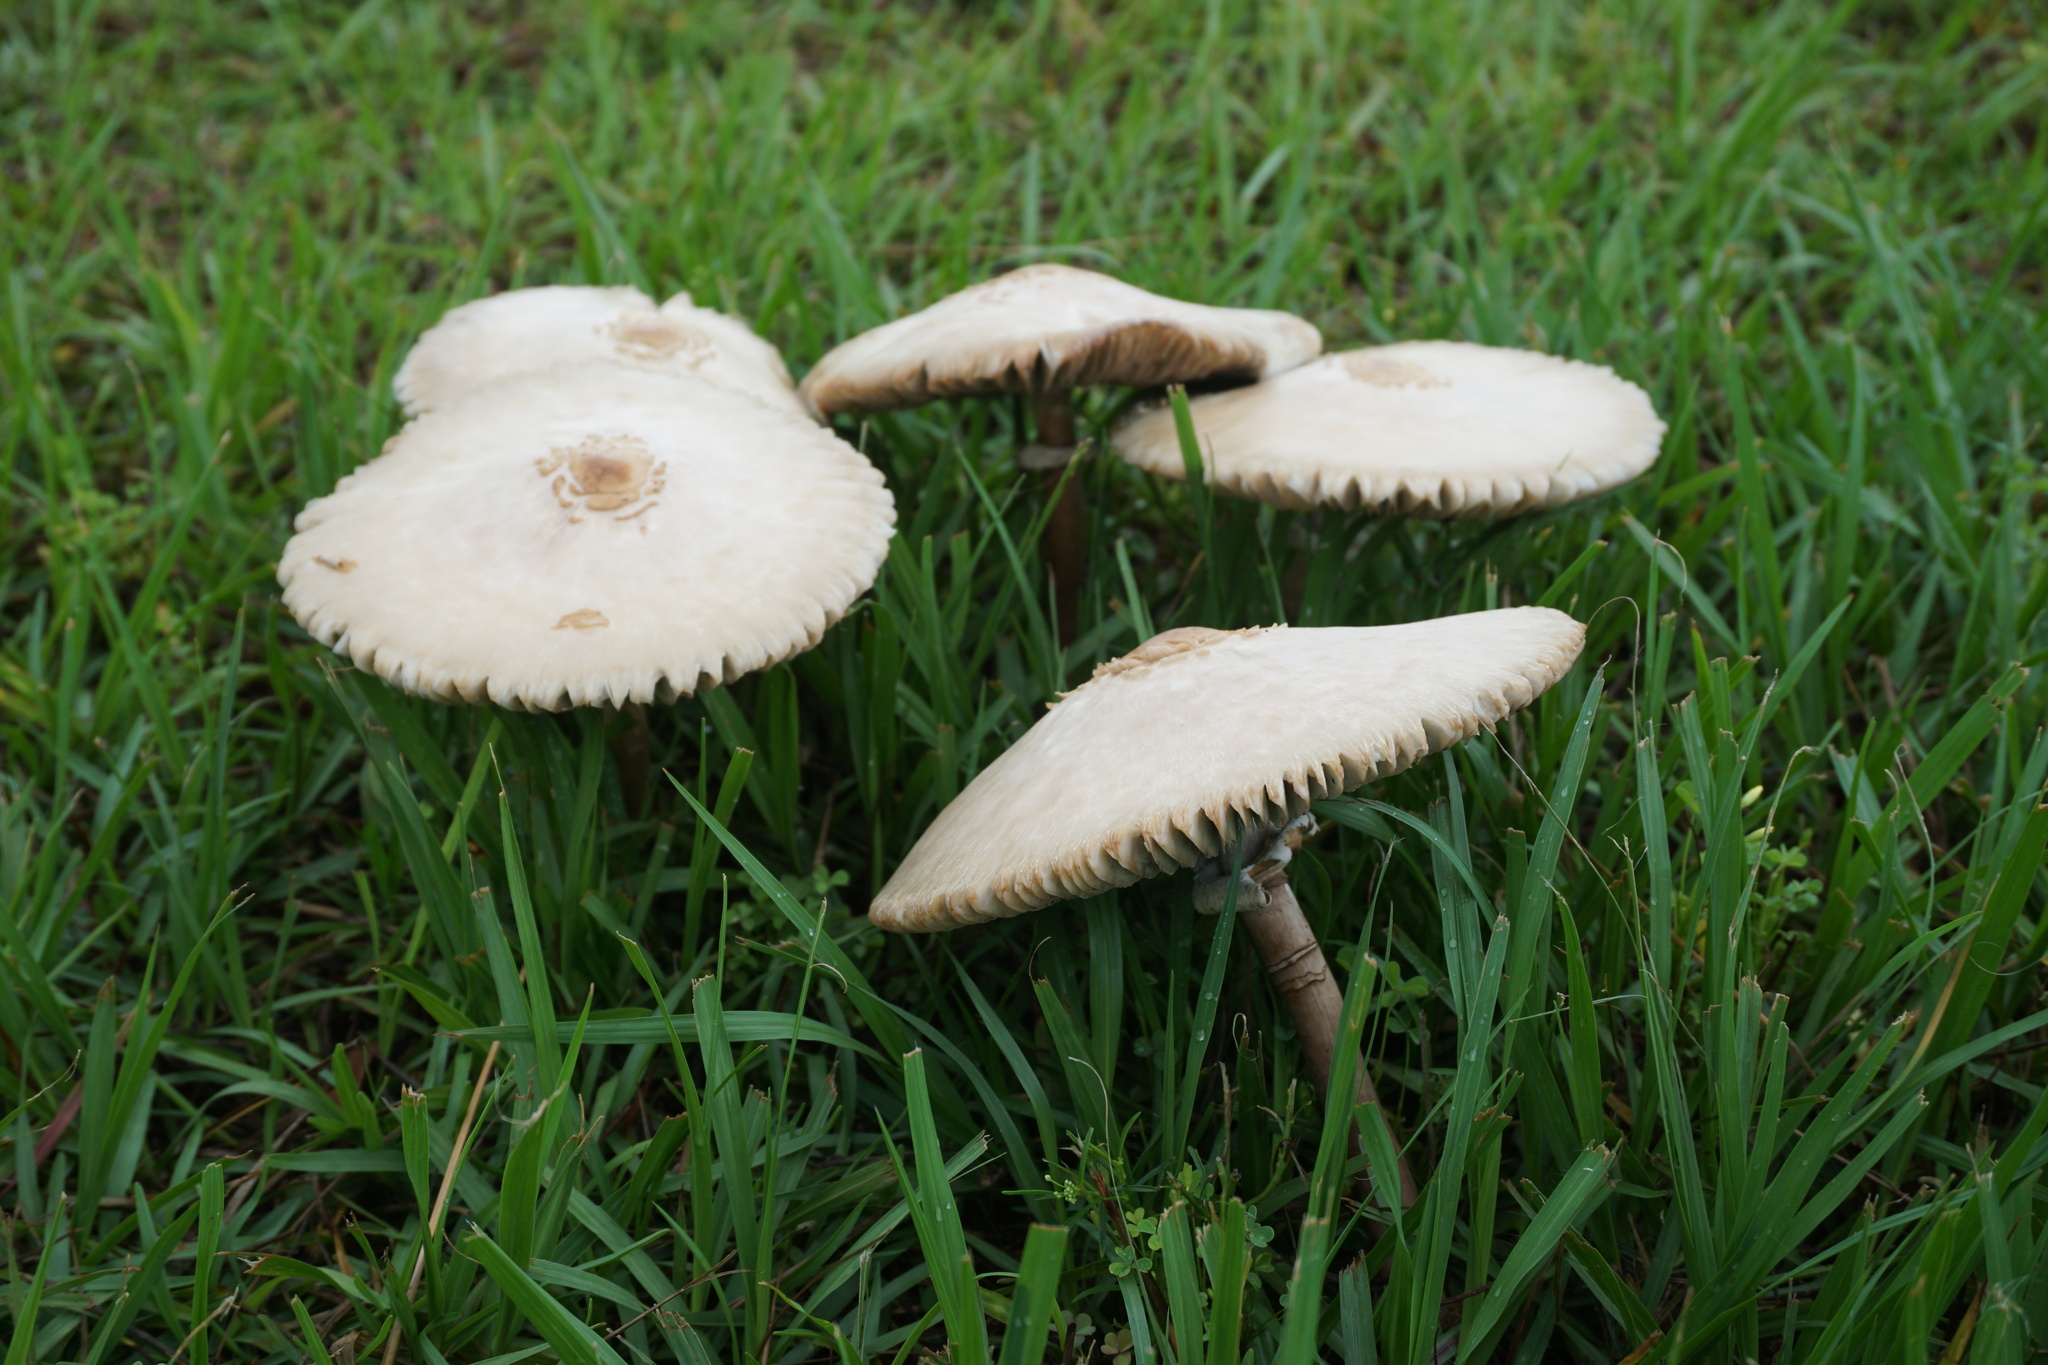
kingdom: Fungi
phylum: Basidiomycota
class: Agaricomycetes
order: Agaricales
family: Agaricaceae
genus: Chlorophyllum
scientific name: Chlorophyllum molybdites
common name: False parasol
